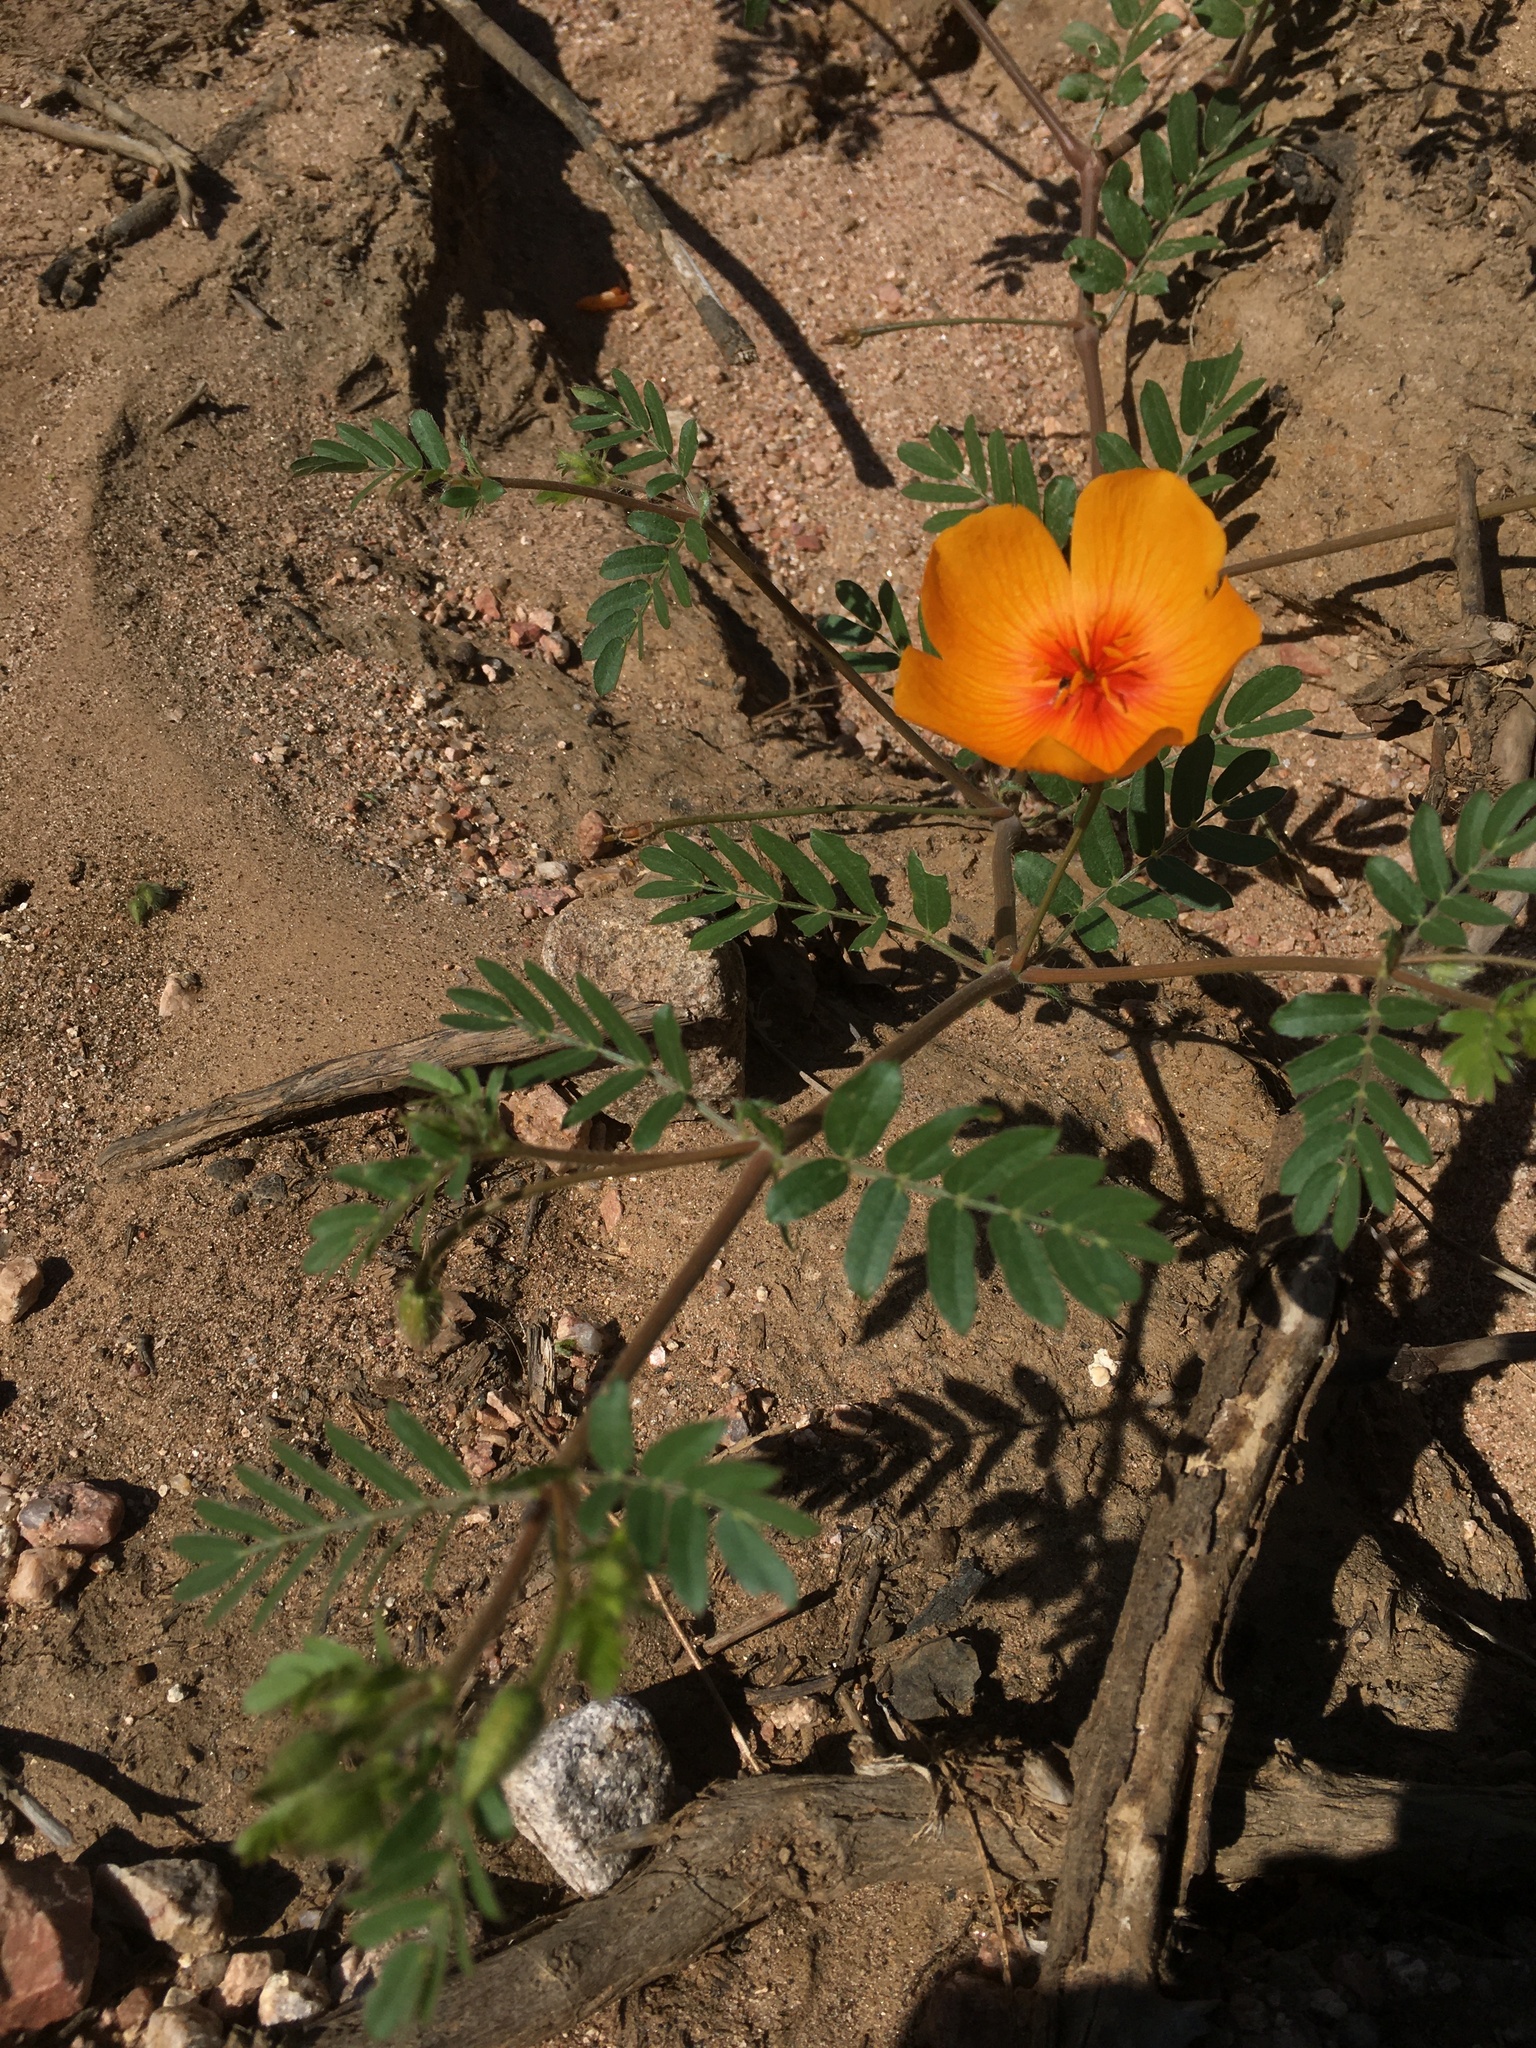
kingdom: Plantae
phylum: Tracheophyta
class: Magnoliopsida
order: Zygophyllales
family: Zygophyllaceae
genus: Kallstroemia
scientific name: Kallstroemia grandiflora
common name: Arizona-poppy
